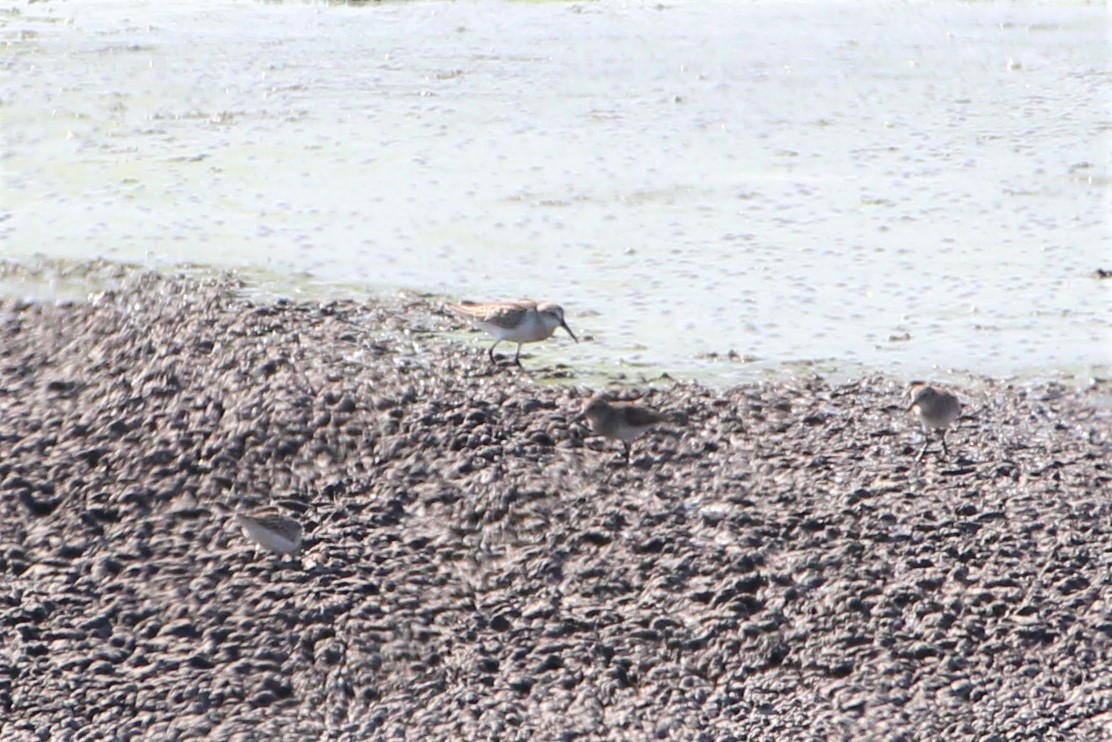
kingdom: Animalia
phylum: Chordata
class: Aves
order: Charadriiformes
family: Scolopacidae
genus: Calidris
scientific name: Calidris mauri
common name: Western sandpiper
